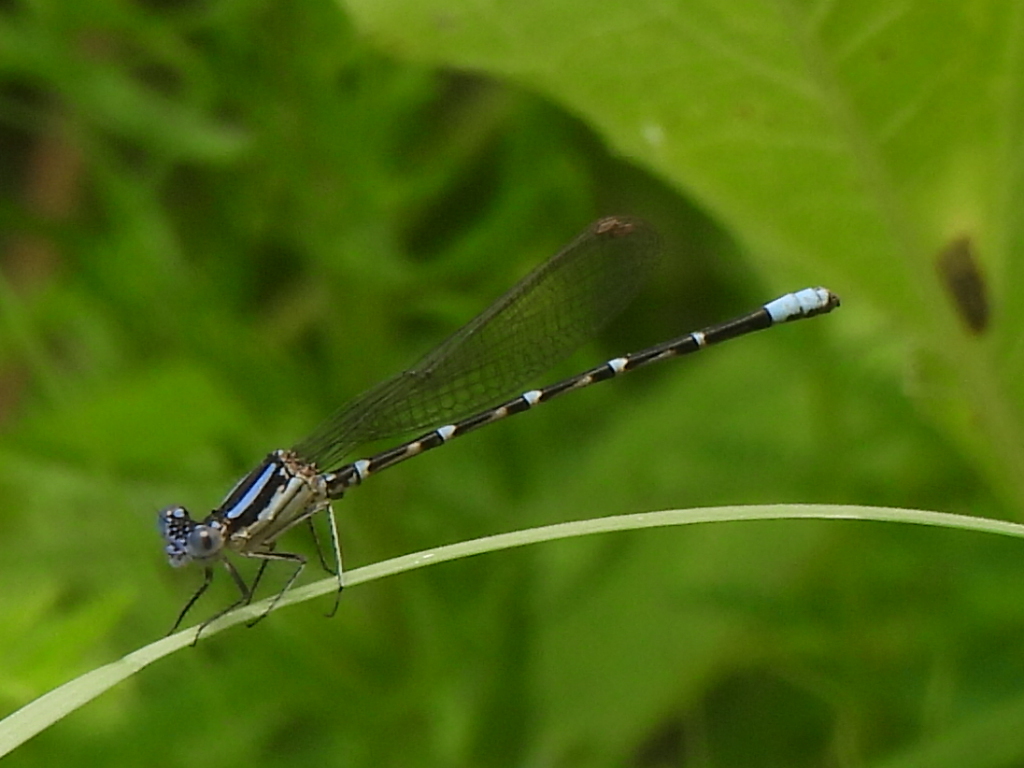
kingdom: Animalia
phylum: Arthropoda
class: Insecta
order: Odonata
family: Coenagrionidae
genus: Argia
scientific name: Argia sedula
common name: Blue-ringed dancer
